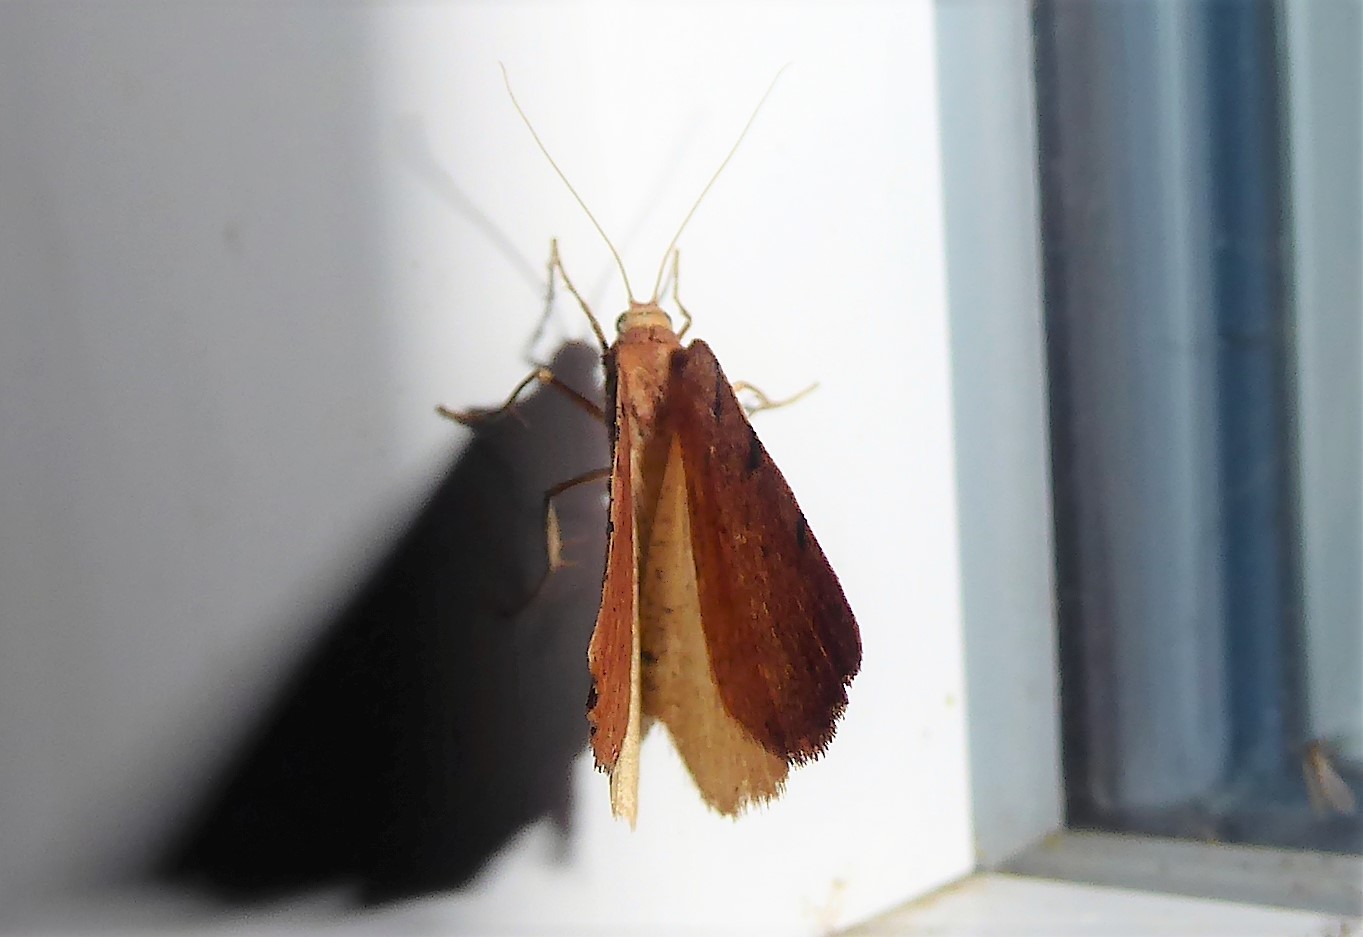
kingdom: Animalia
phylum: Arthropoda
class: Insecta
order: Lepidoptera
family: Geometridae
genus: Sestra
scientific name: Sestra humeraria
